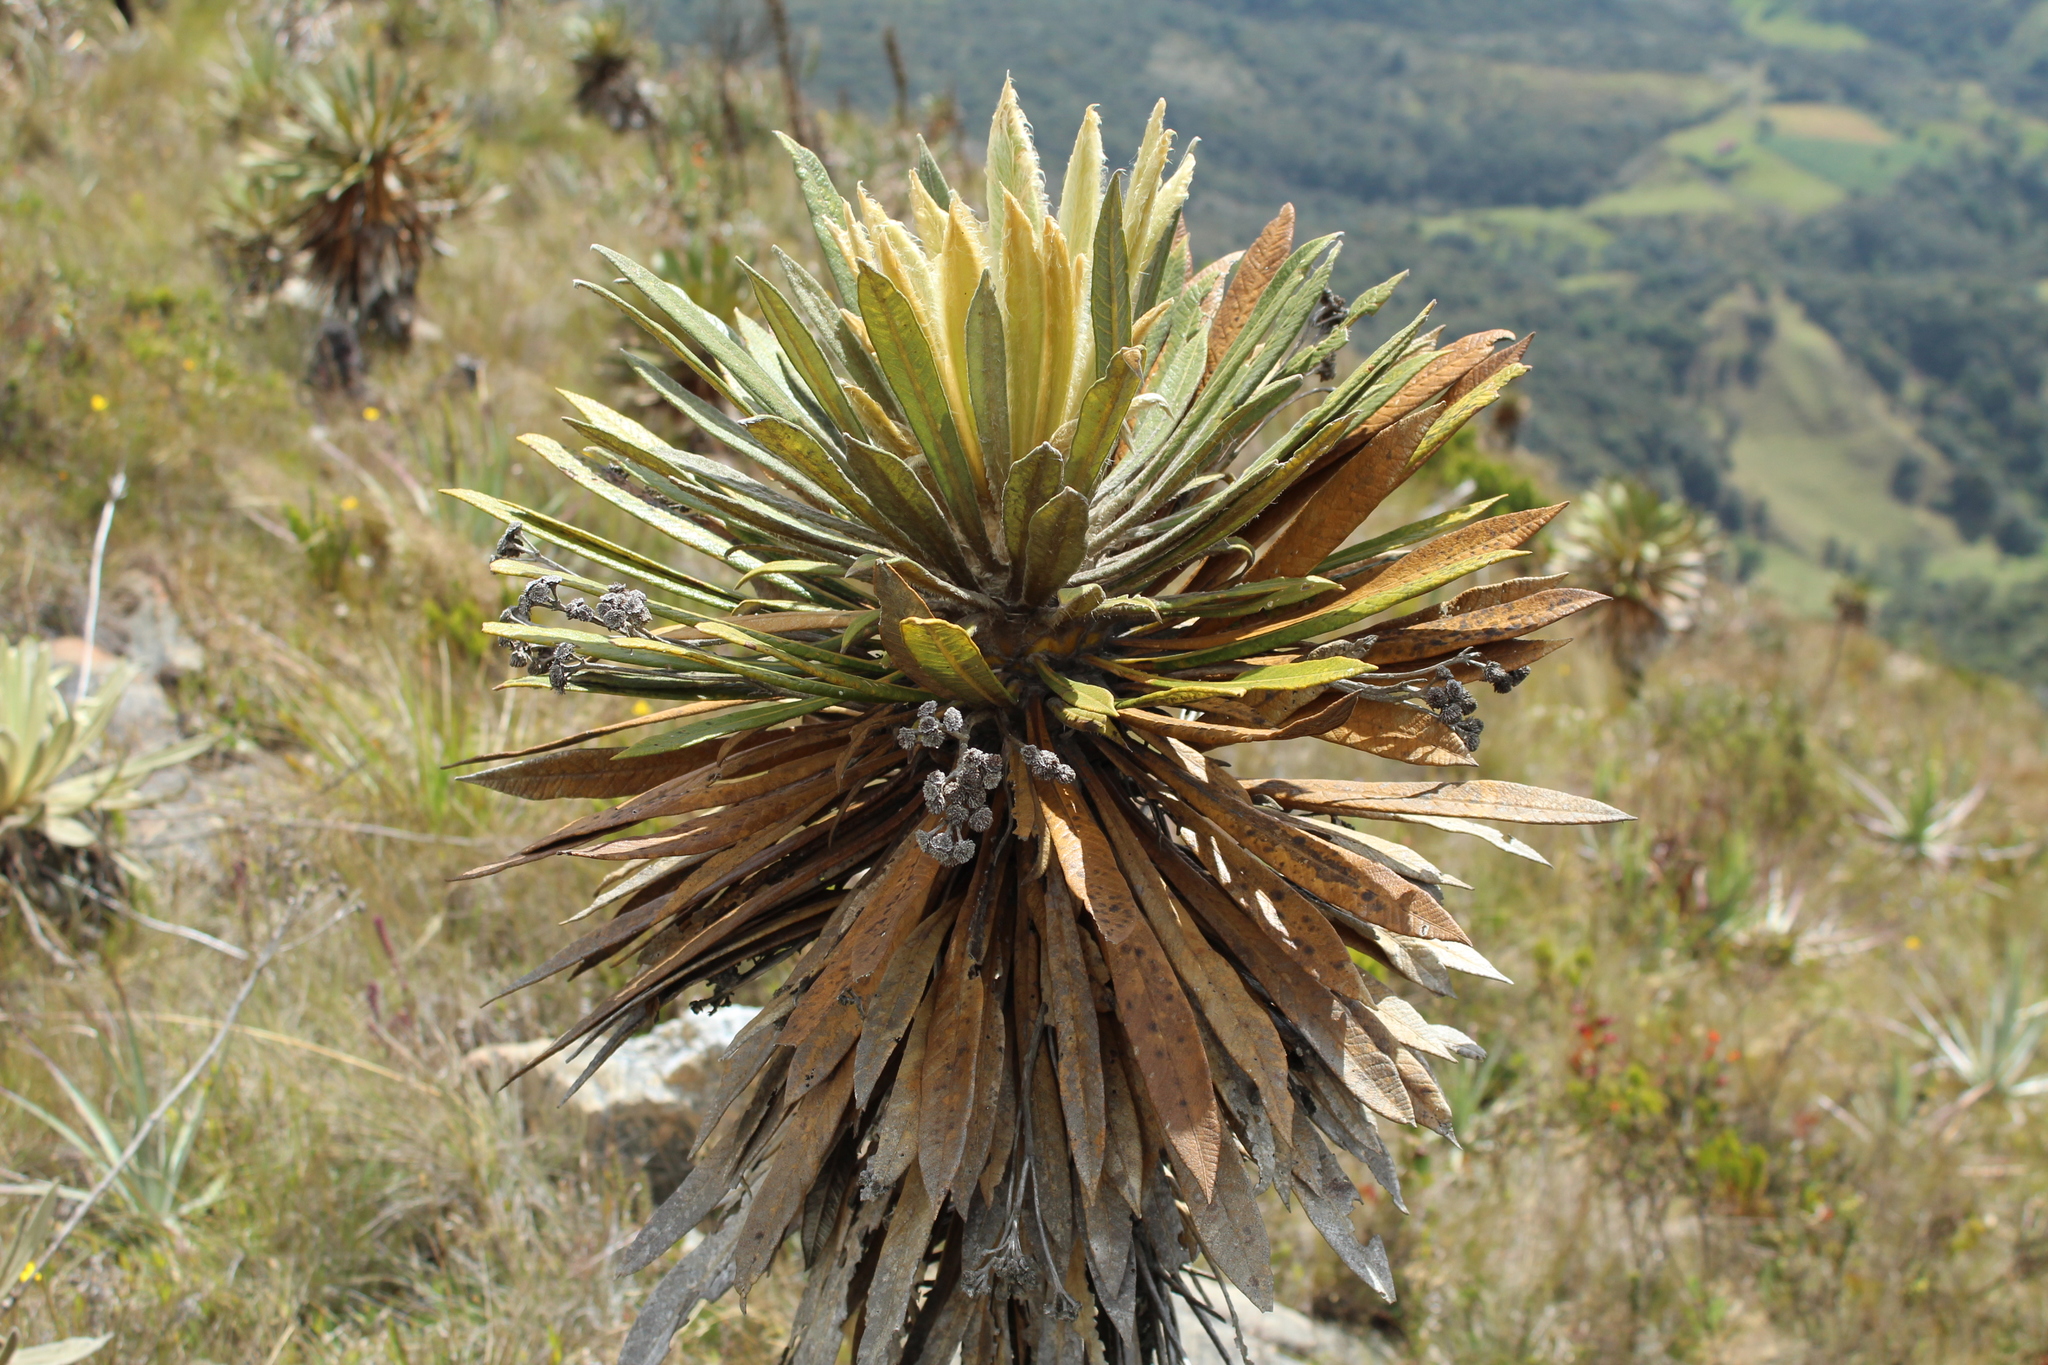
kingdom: Plantae
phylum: Tracheophyta
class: Magnoliopsida
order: Asterales
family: Asteraceae
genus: Espeletia
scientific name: Espeletia guacharaca
